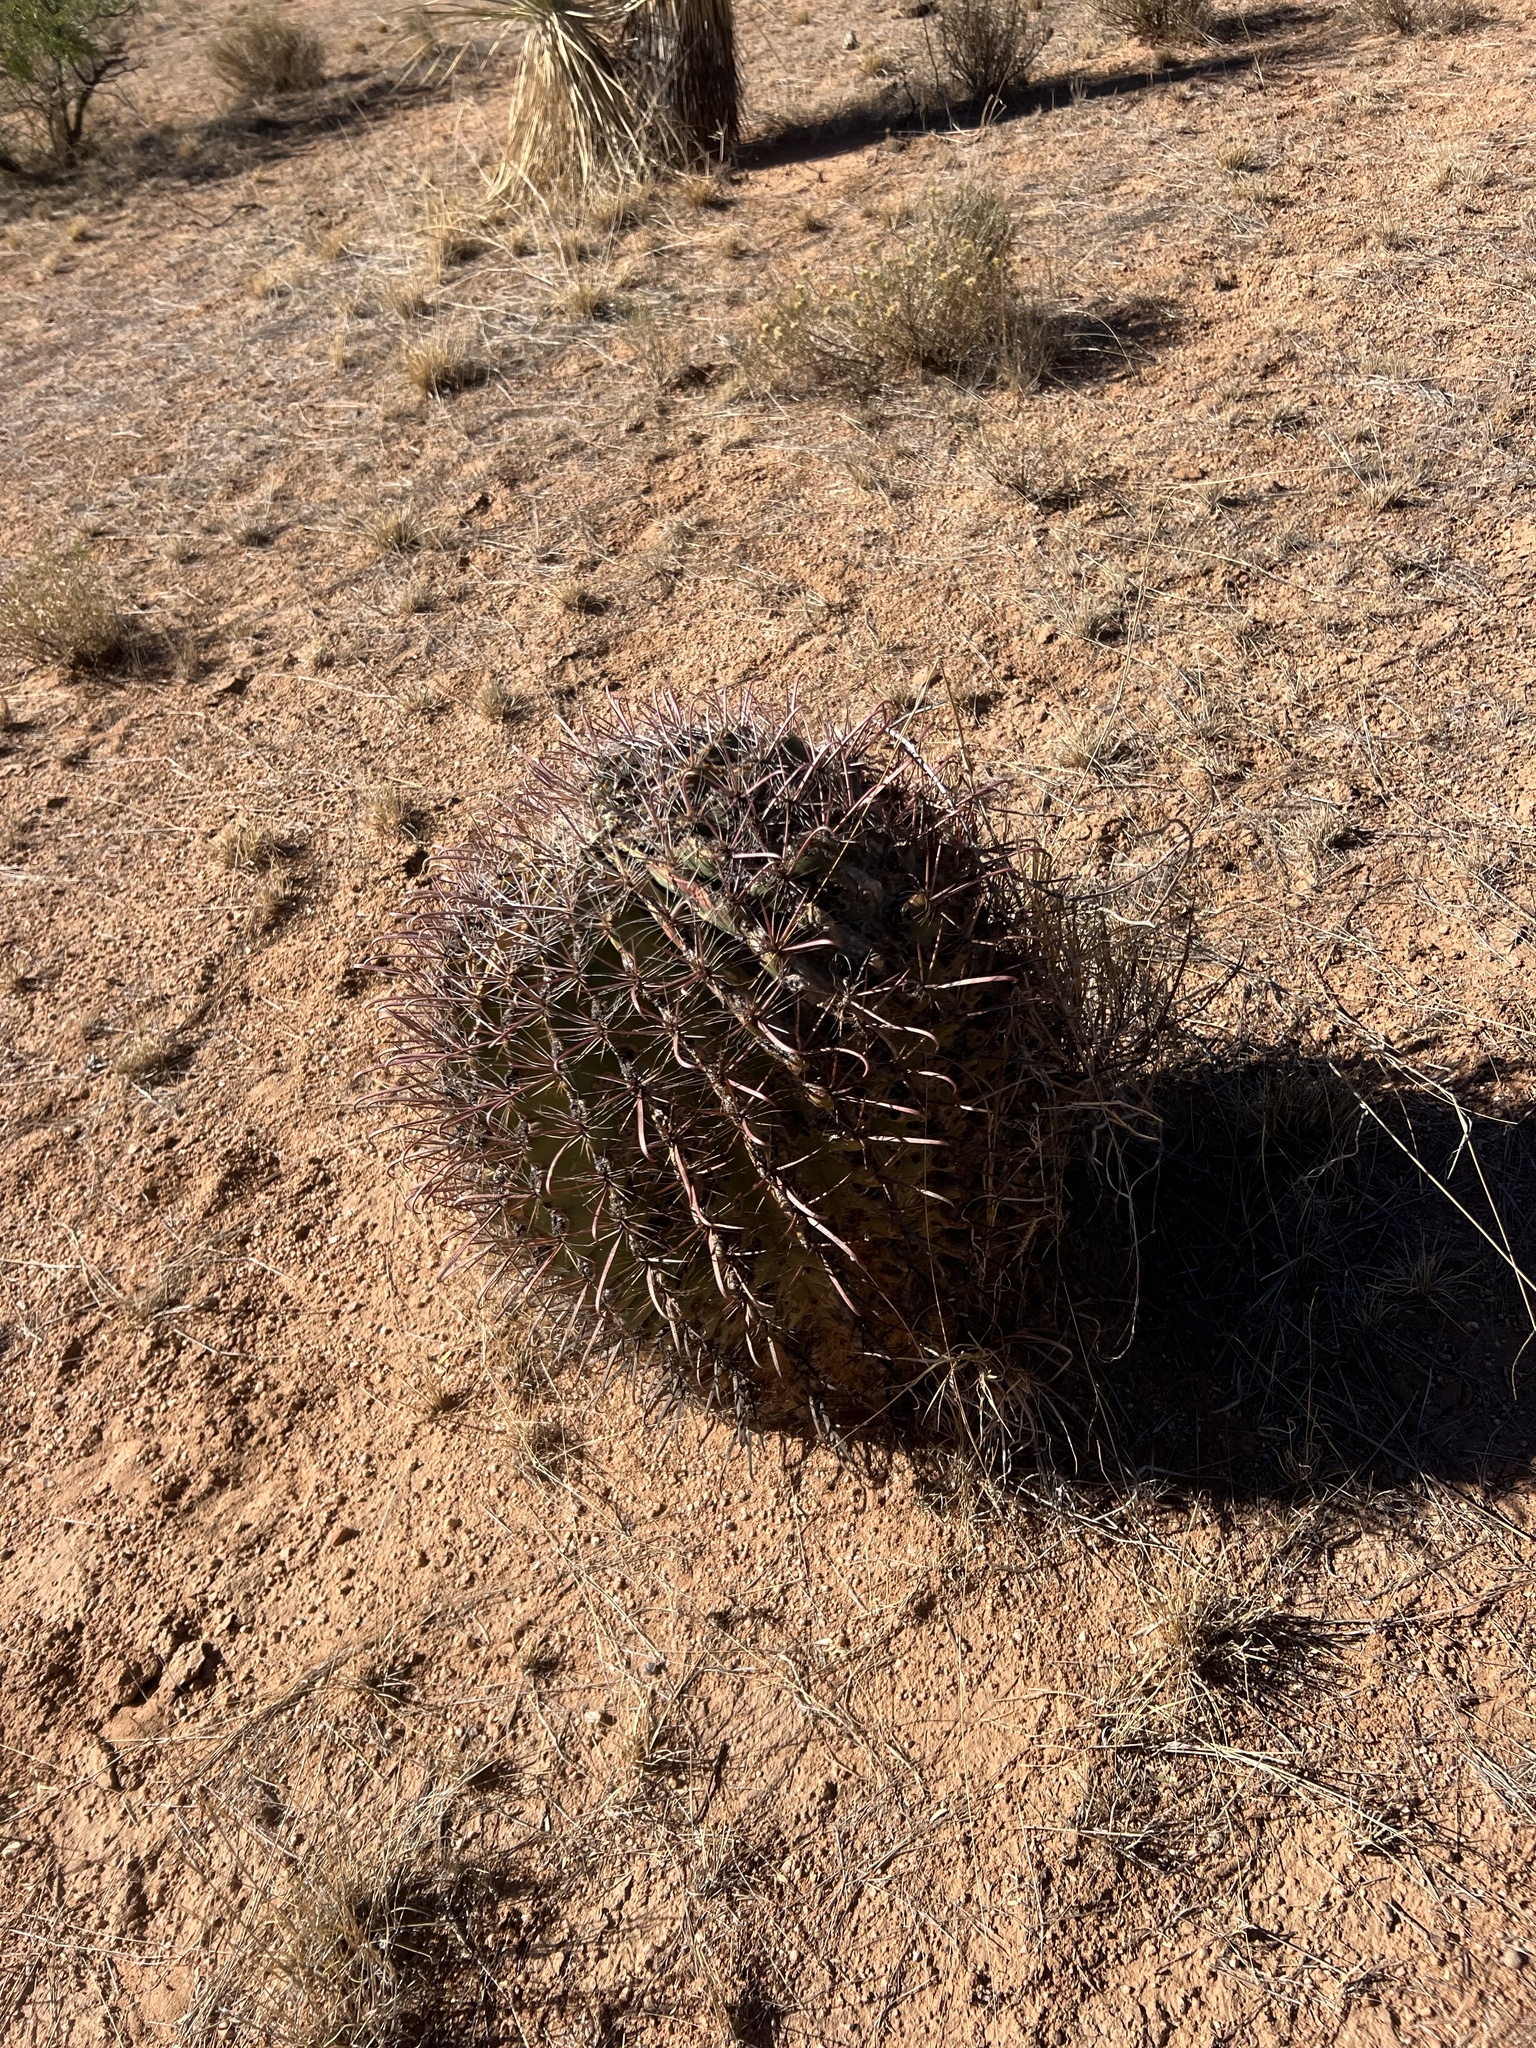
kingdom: Plantae
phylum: Tracheophyta
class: Magnoliopsida
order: Caryophyllales
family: Cactaceae
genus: Ferocactus
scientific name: Ferocactus wislizeni
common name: Candy barrel cactus
